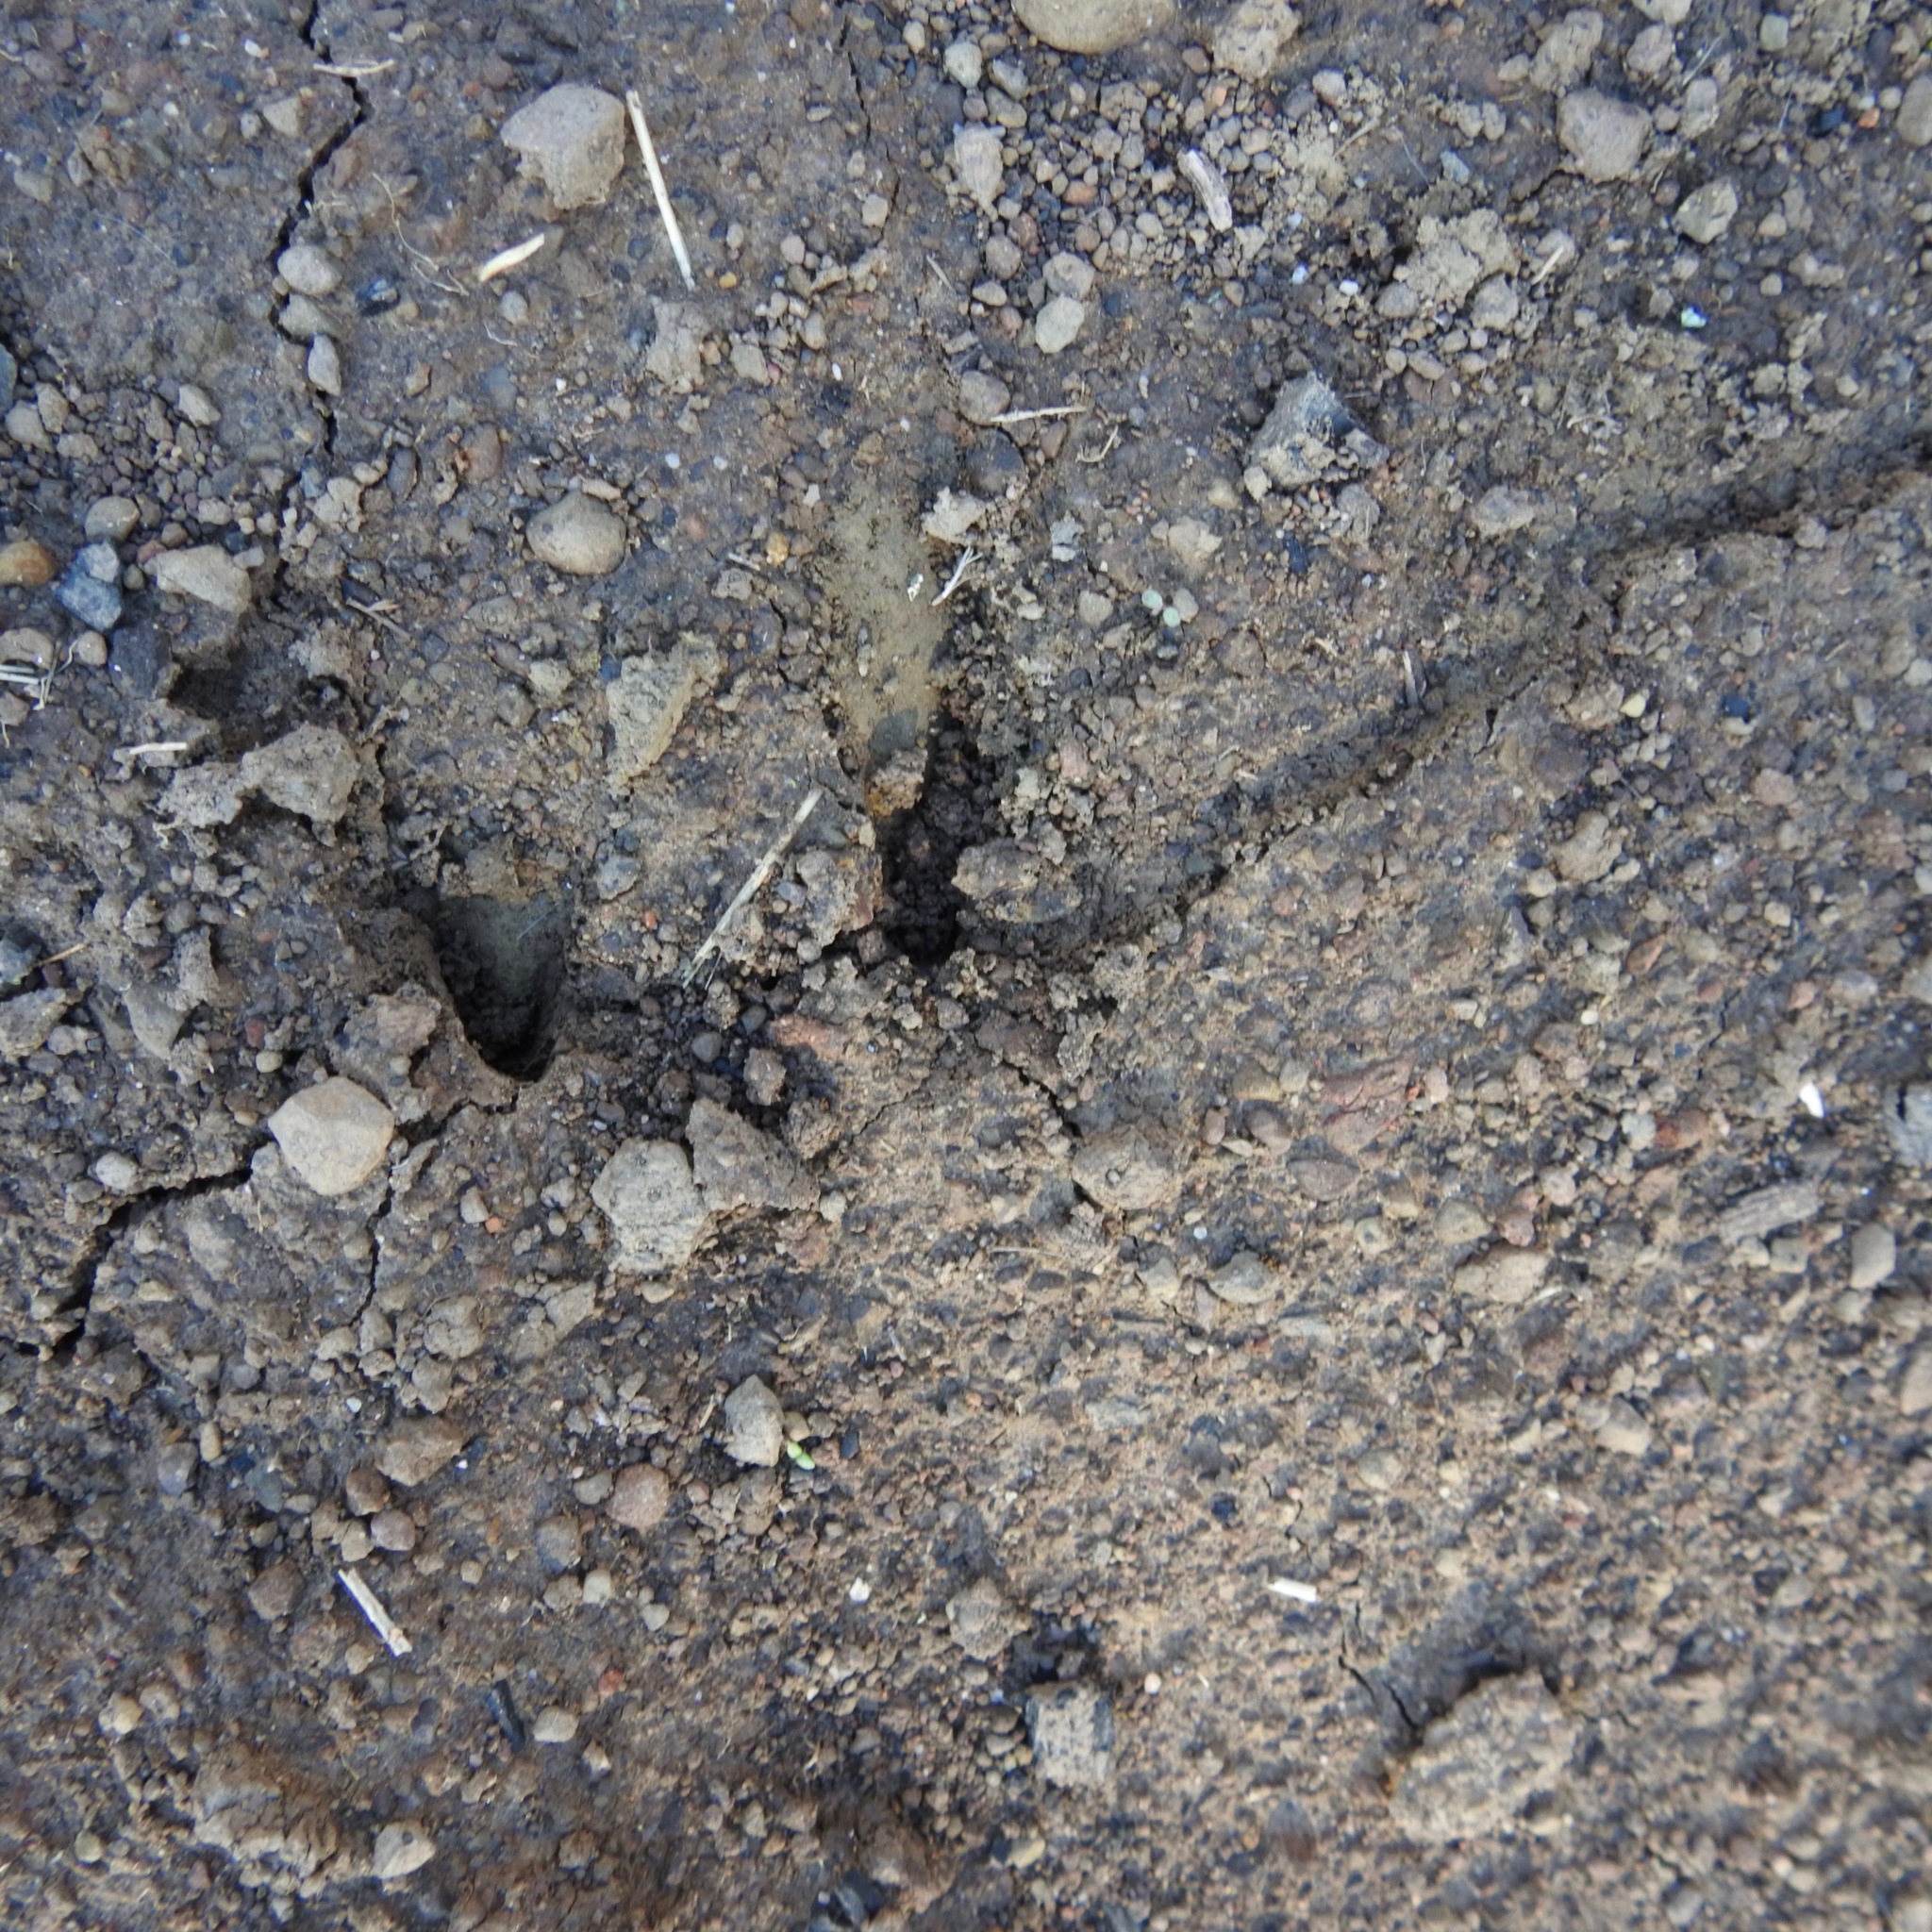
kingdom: Animalia
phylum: Chordata
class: Mammalia
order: Artiodactyla
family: Cervidae
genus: Odocoileus
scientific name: Odocoileus hemionus
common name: Mule deer
